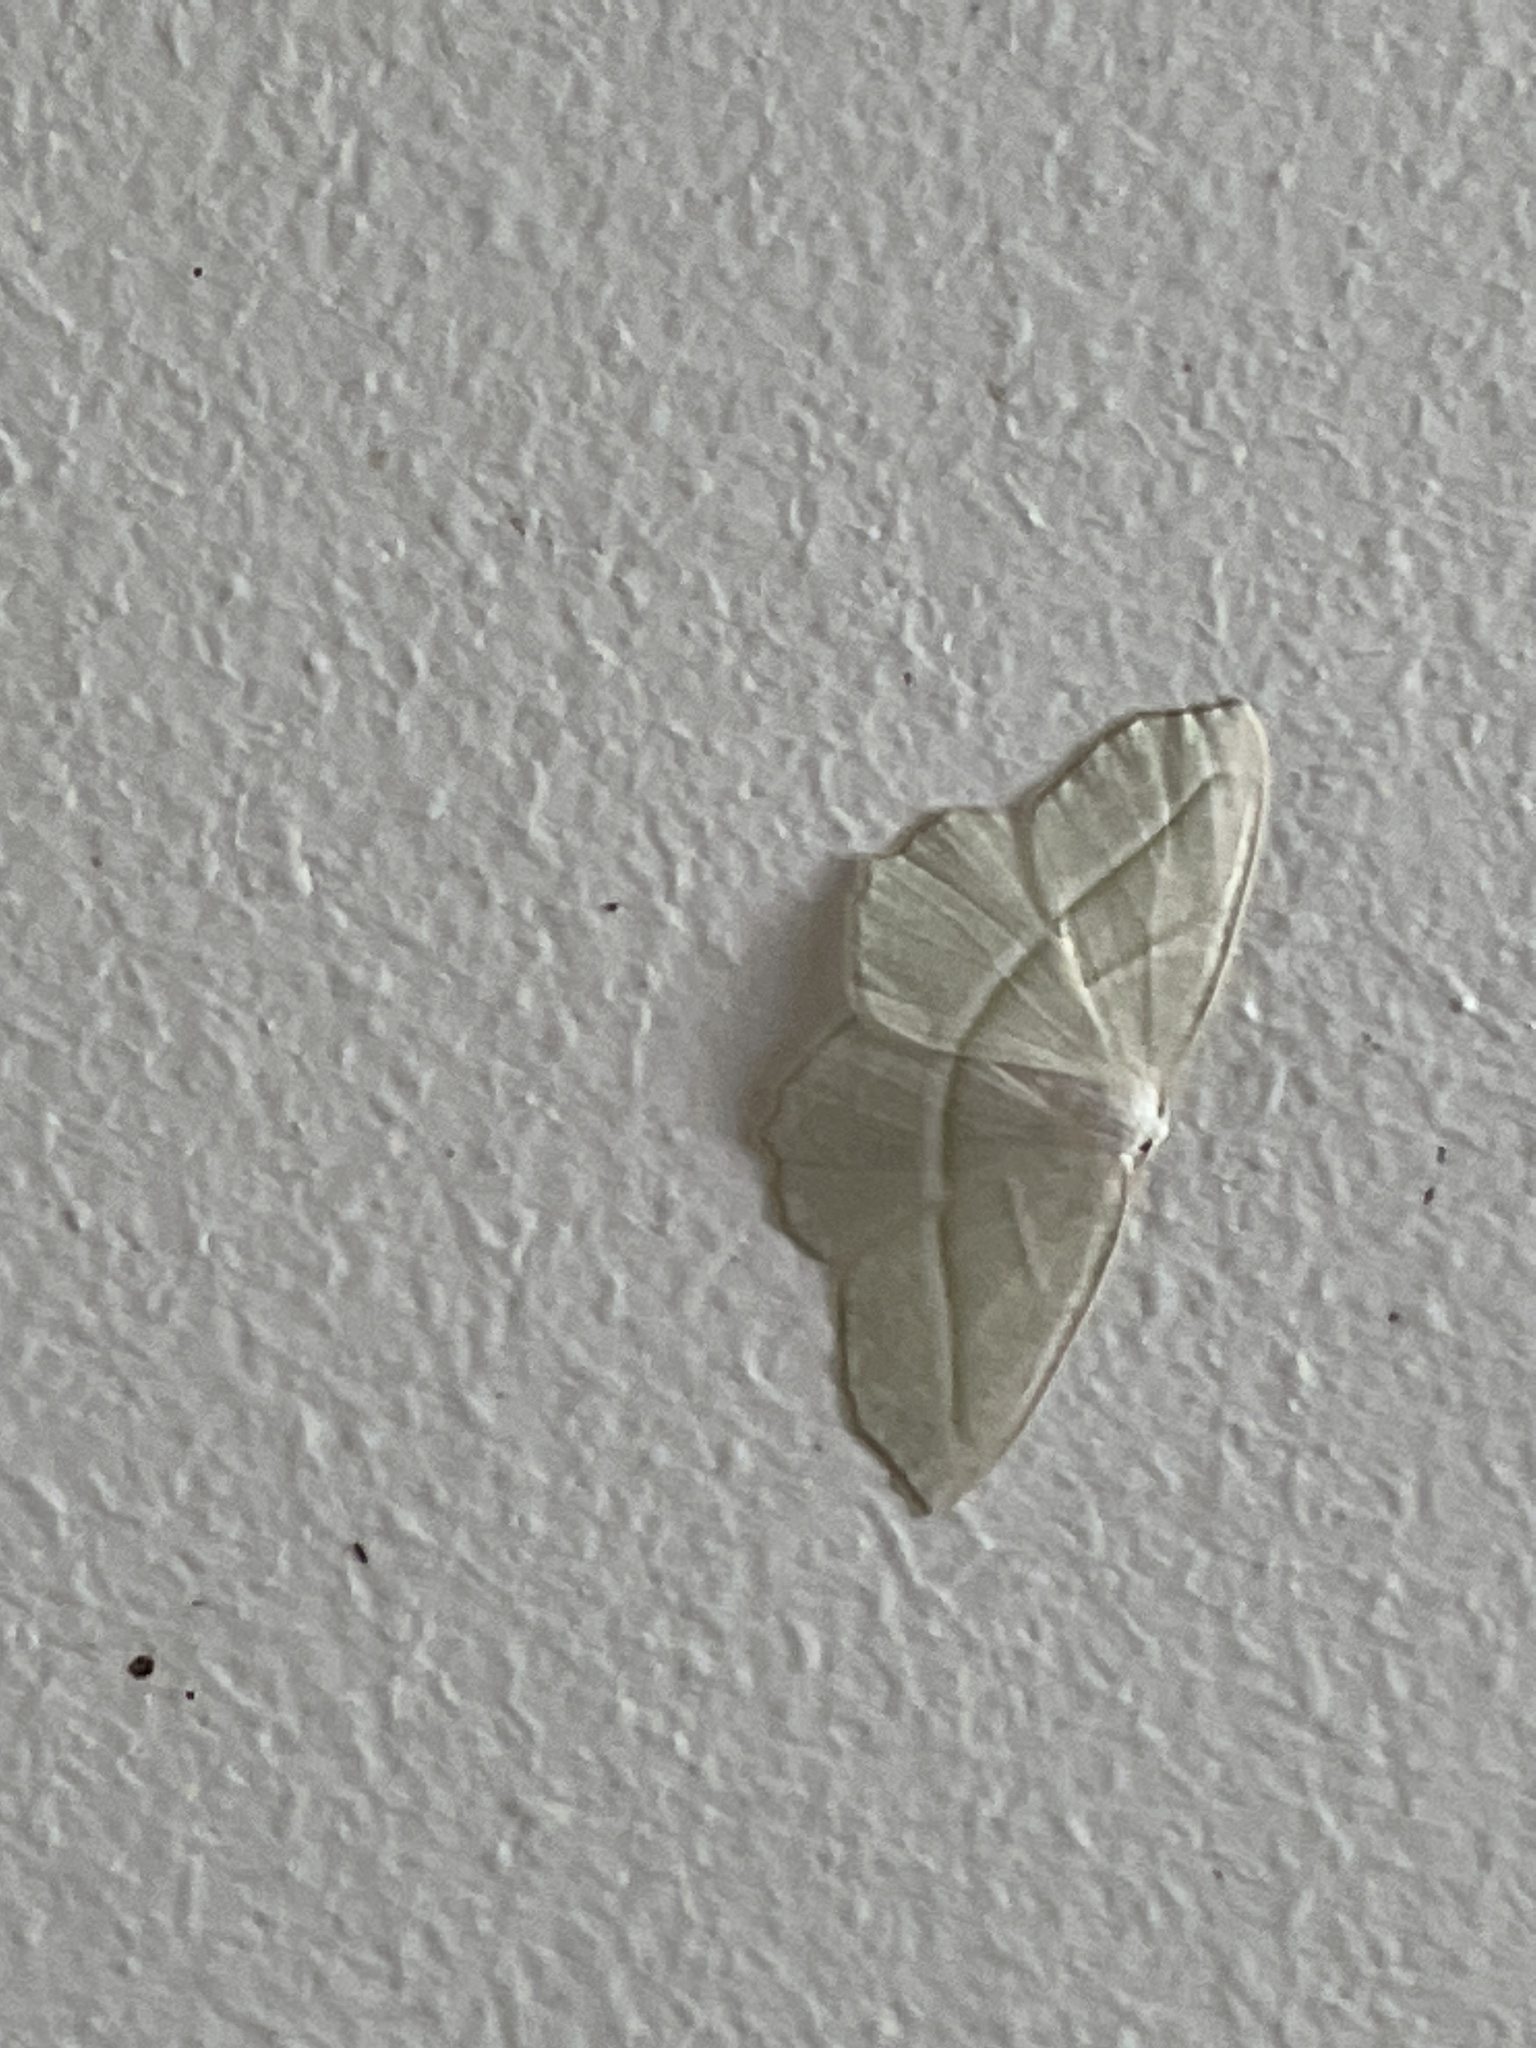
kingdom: Animalia
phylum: Arthropoda
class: Insecta
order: Lepidoptera
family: Geometridae
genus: Campaea
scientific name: Campaea perlata
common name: Fringed looper
